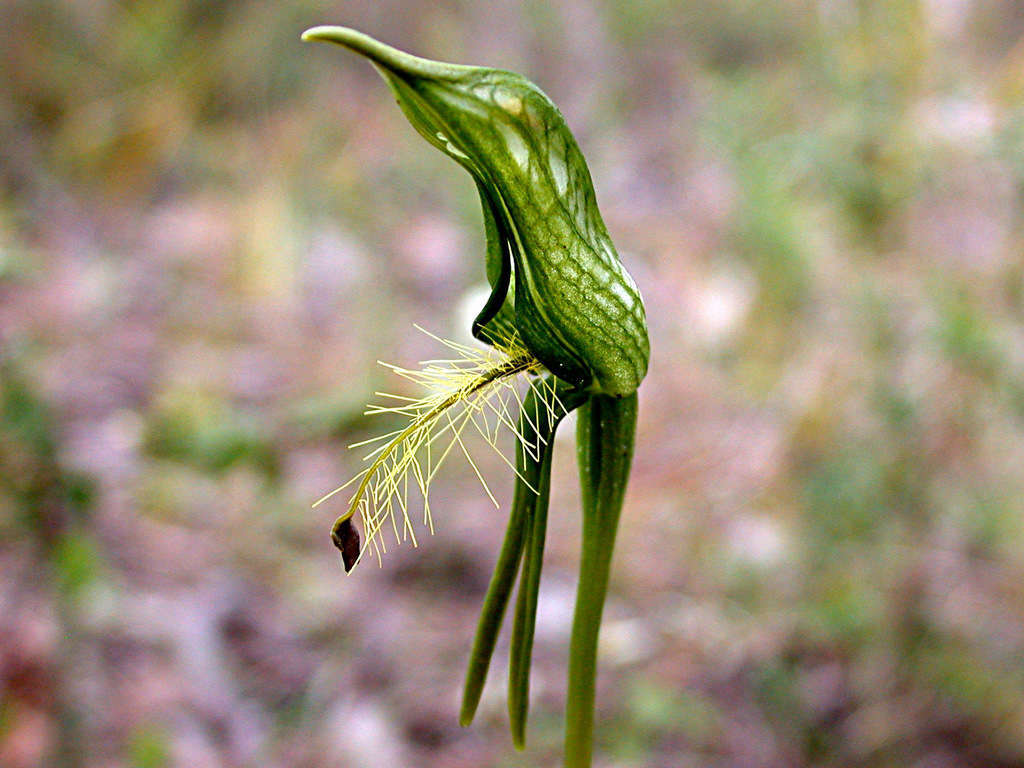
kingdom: Plantae
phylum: Tracheophyta
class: Liliopsida
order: Asparagales
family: Orchidaceae
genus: Pterostylis
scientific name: Pterostylis plumosa
